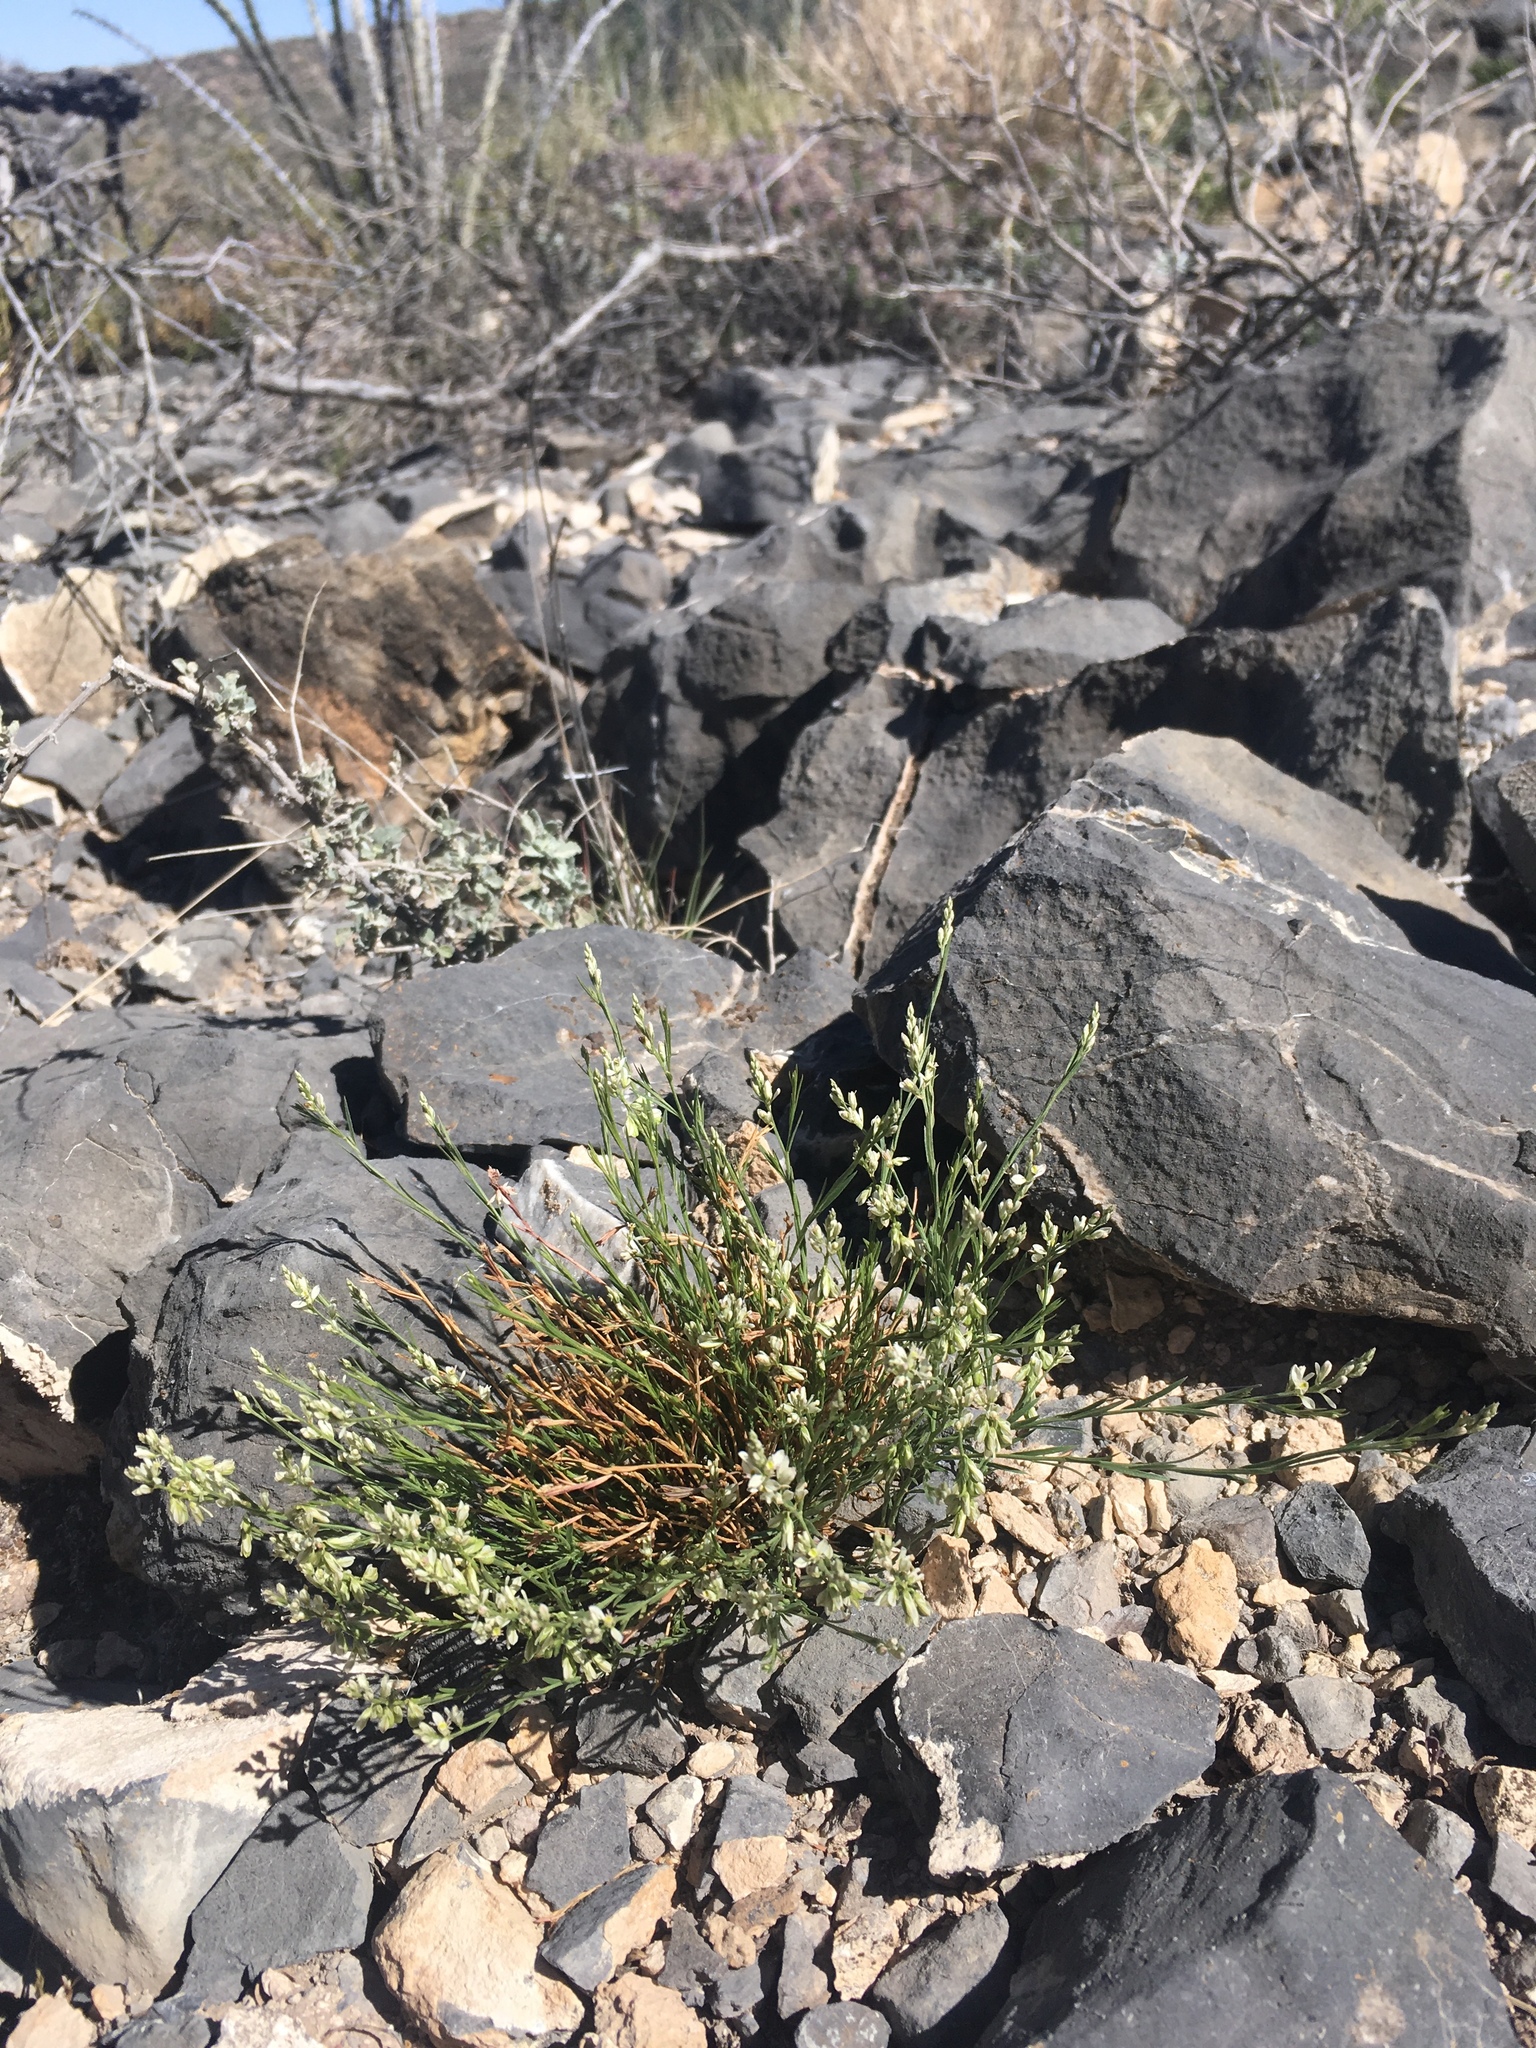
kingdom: Plantae
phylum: Tracheophyta
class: Magnoliopsida
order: Fabales
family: Polygalaceae
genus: Polygala
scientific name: Polygala scoparioides
